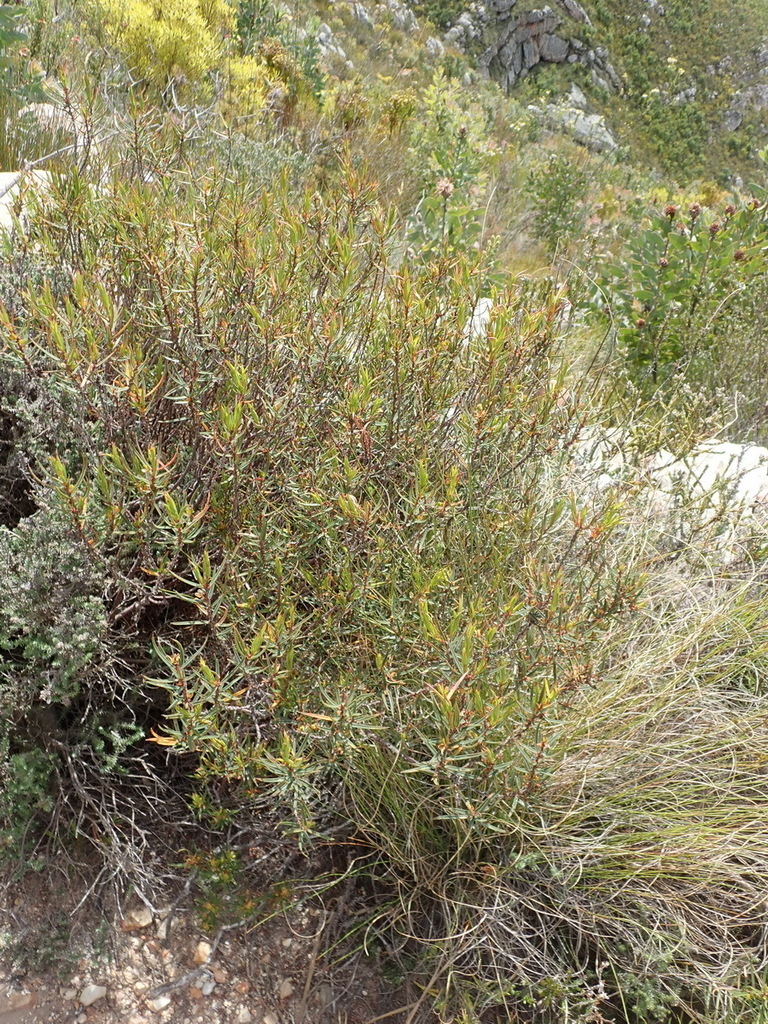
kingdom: Plantae
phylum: Tracheophyta
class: Magnoliopsida
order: Sapindales
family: Rutaceae
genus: Agathosma
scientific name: Agathosma pungens
